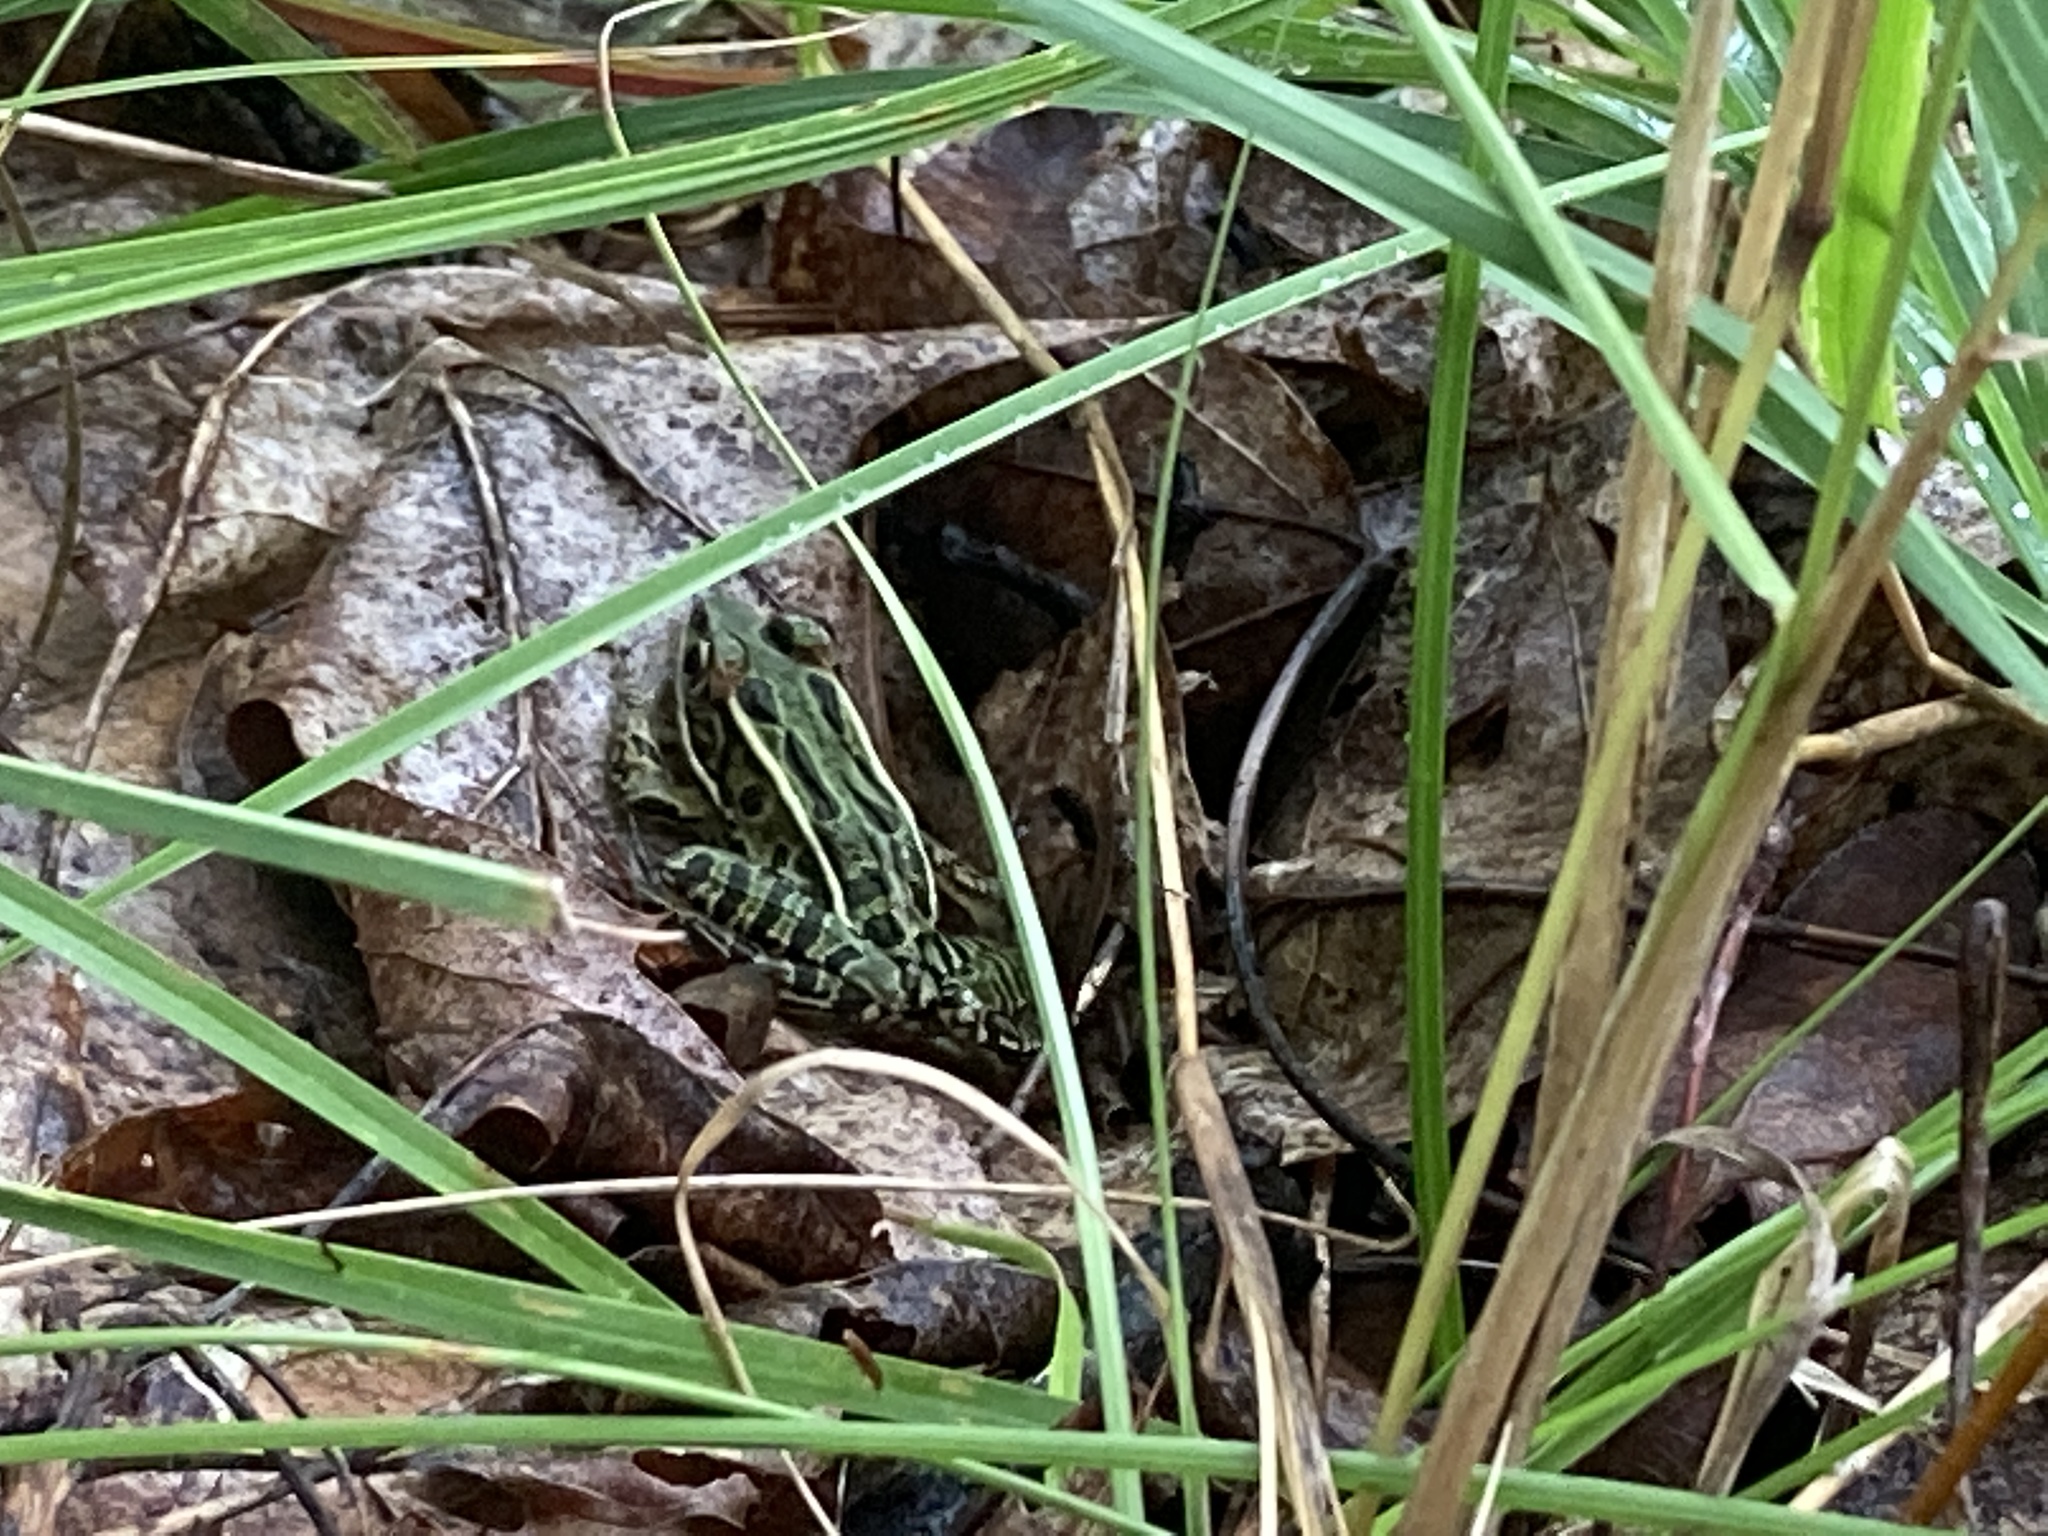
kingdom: Animalia
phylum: Chordata
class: Amphibia
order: Anura
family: Ranidae
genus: Lithobates
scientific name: Lithobates pipiens
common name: Northern leopard frog
